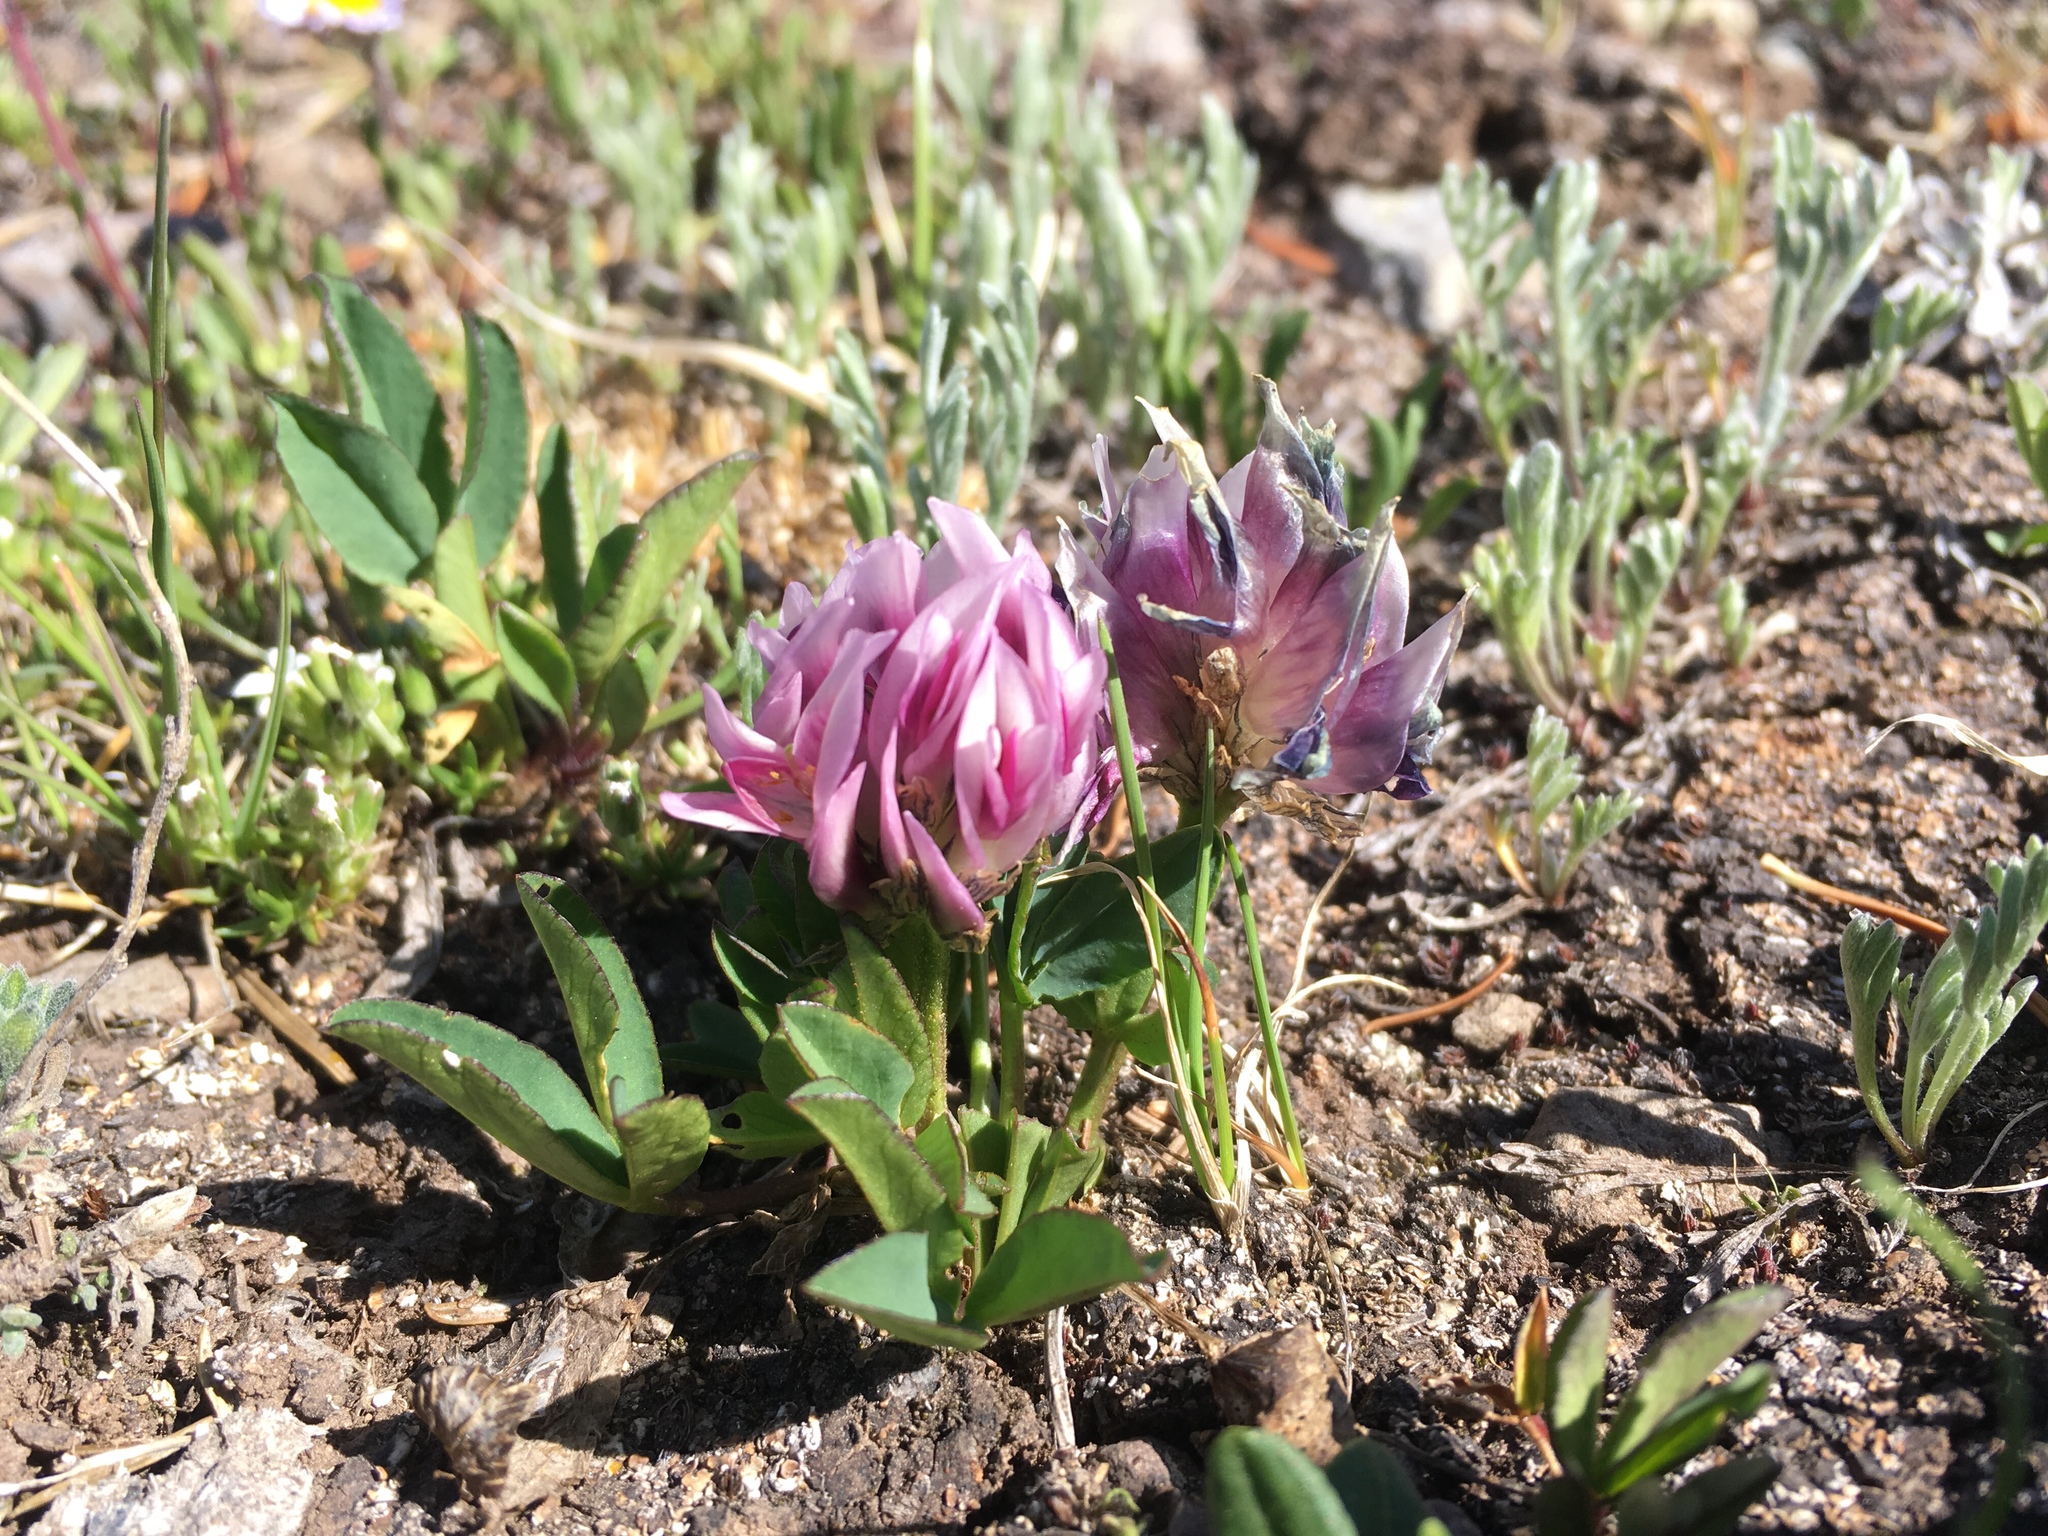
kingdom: Plantae
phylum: Tracheophyta
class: Magnoliopsida
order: Fabales
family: Fabaceae
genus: Trifolium
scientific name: Trifolium parryi
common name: Parry's clover
